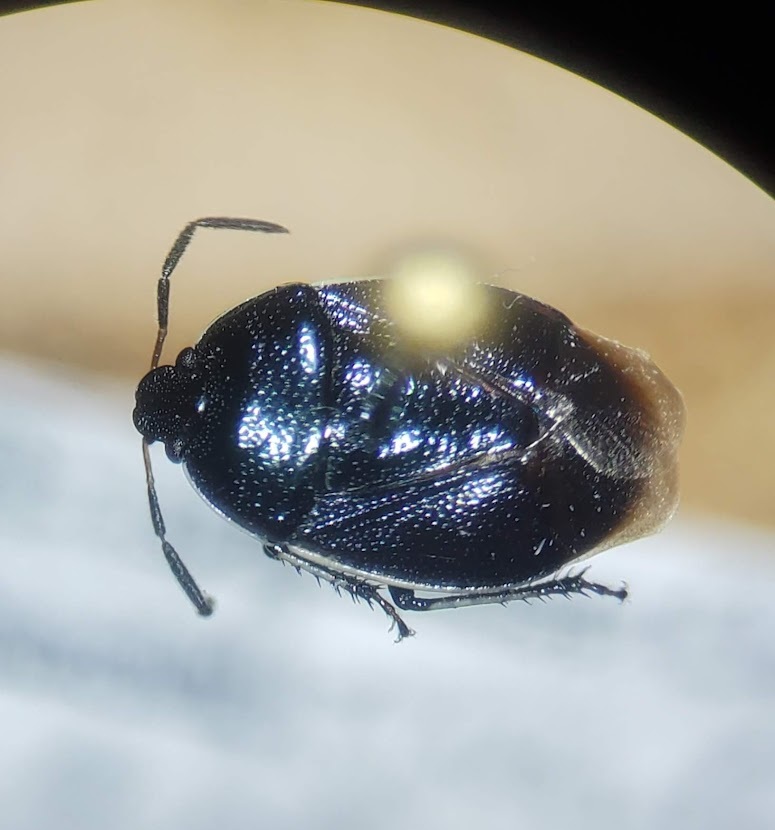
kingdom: Animalia
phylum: Arthropoda
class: Insecta
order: Hemiptera
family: Cydnidae
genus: Sehirus
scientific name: Sehirus cinctus
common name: White-margined burrower bug
